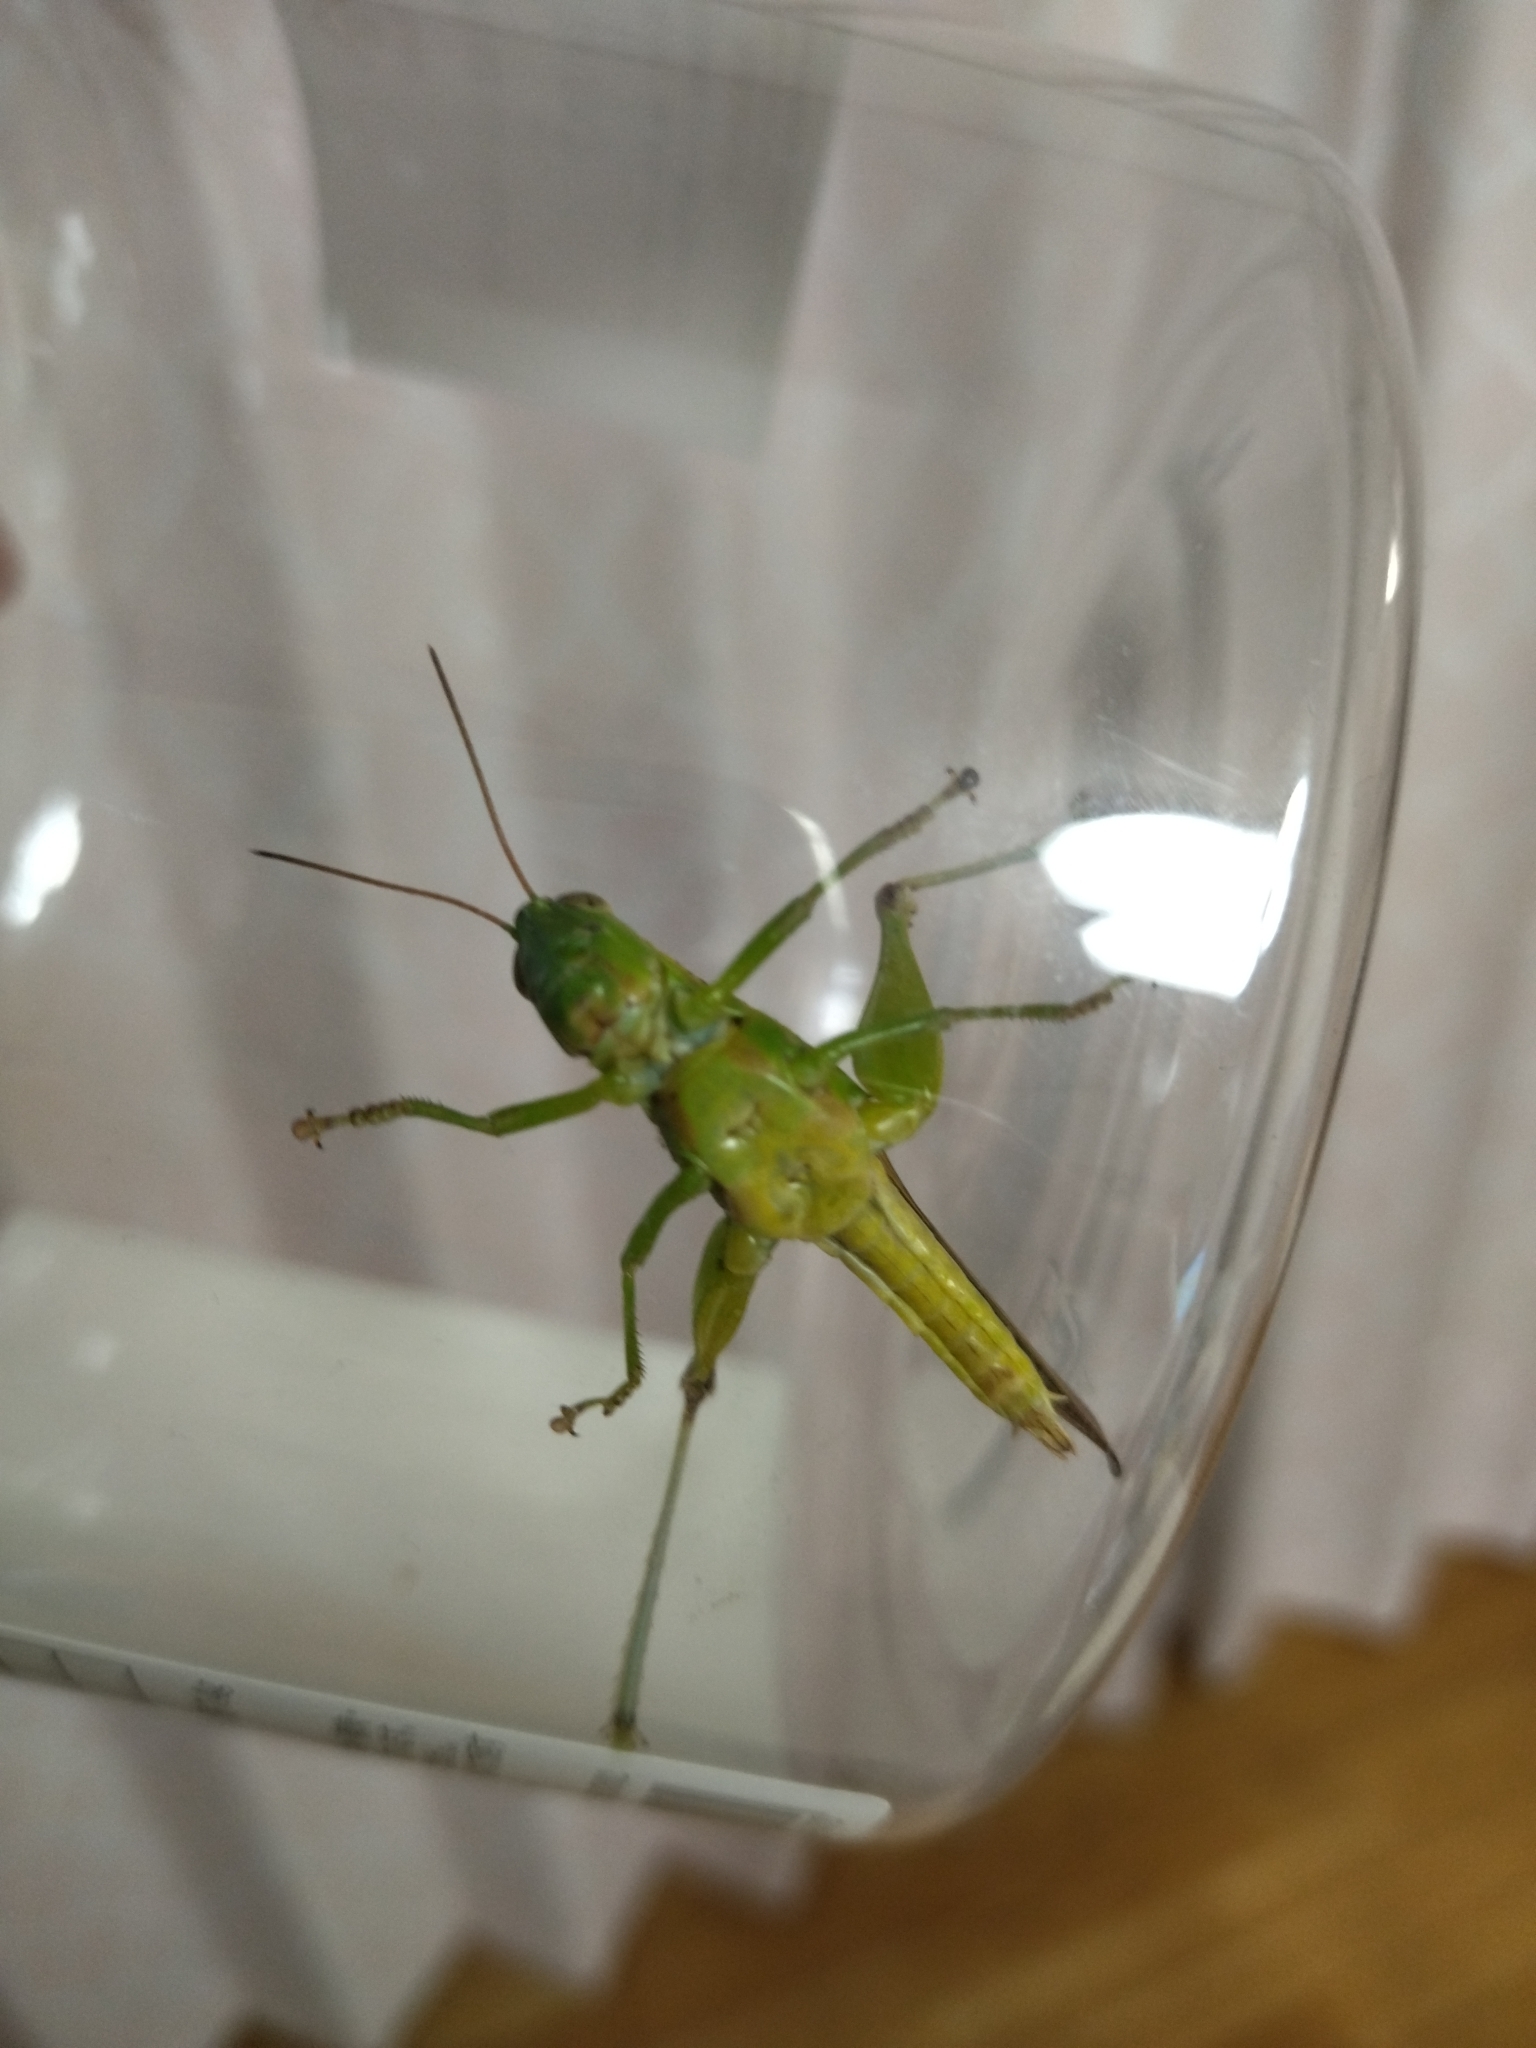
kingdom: Animalia
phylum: Arthropoda
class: Insecta
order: Orthoptera
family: Acrididae
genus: Oxya
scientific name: Oxya yezoensis
